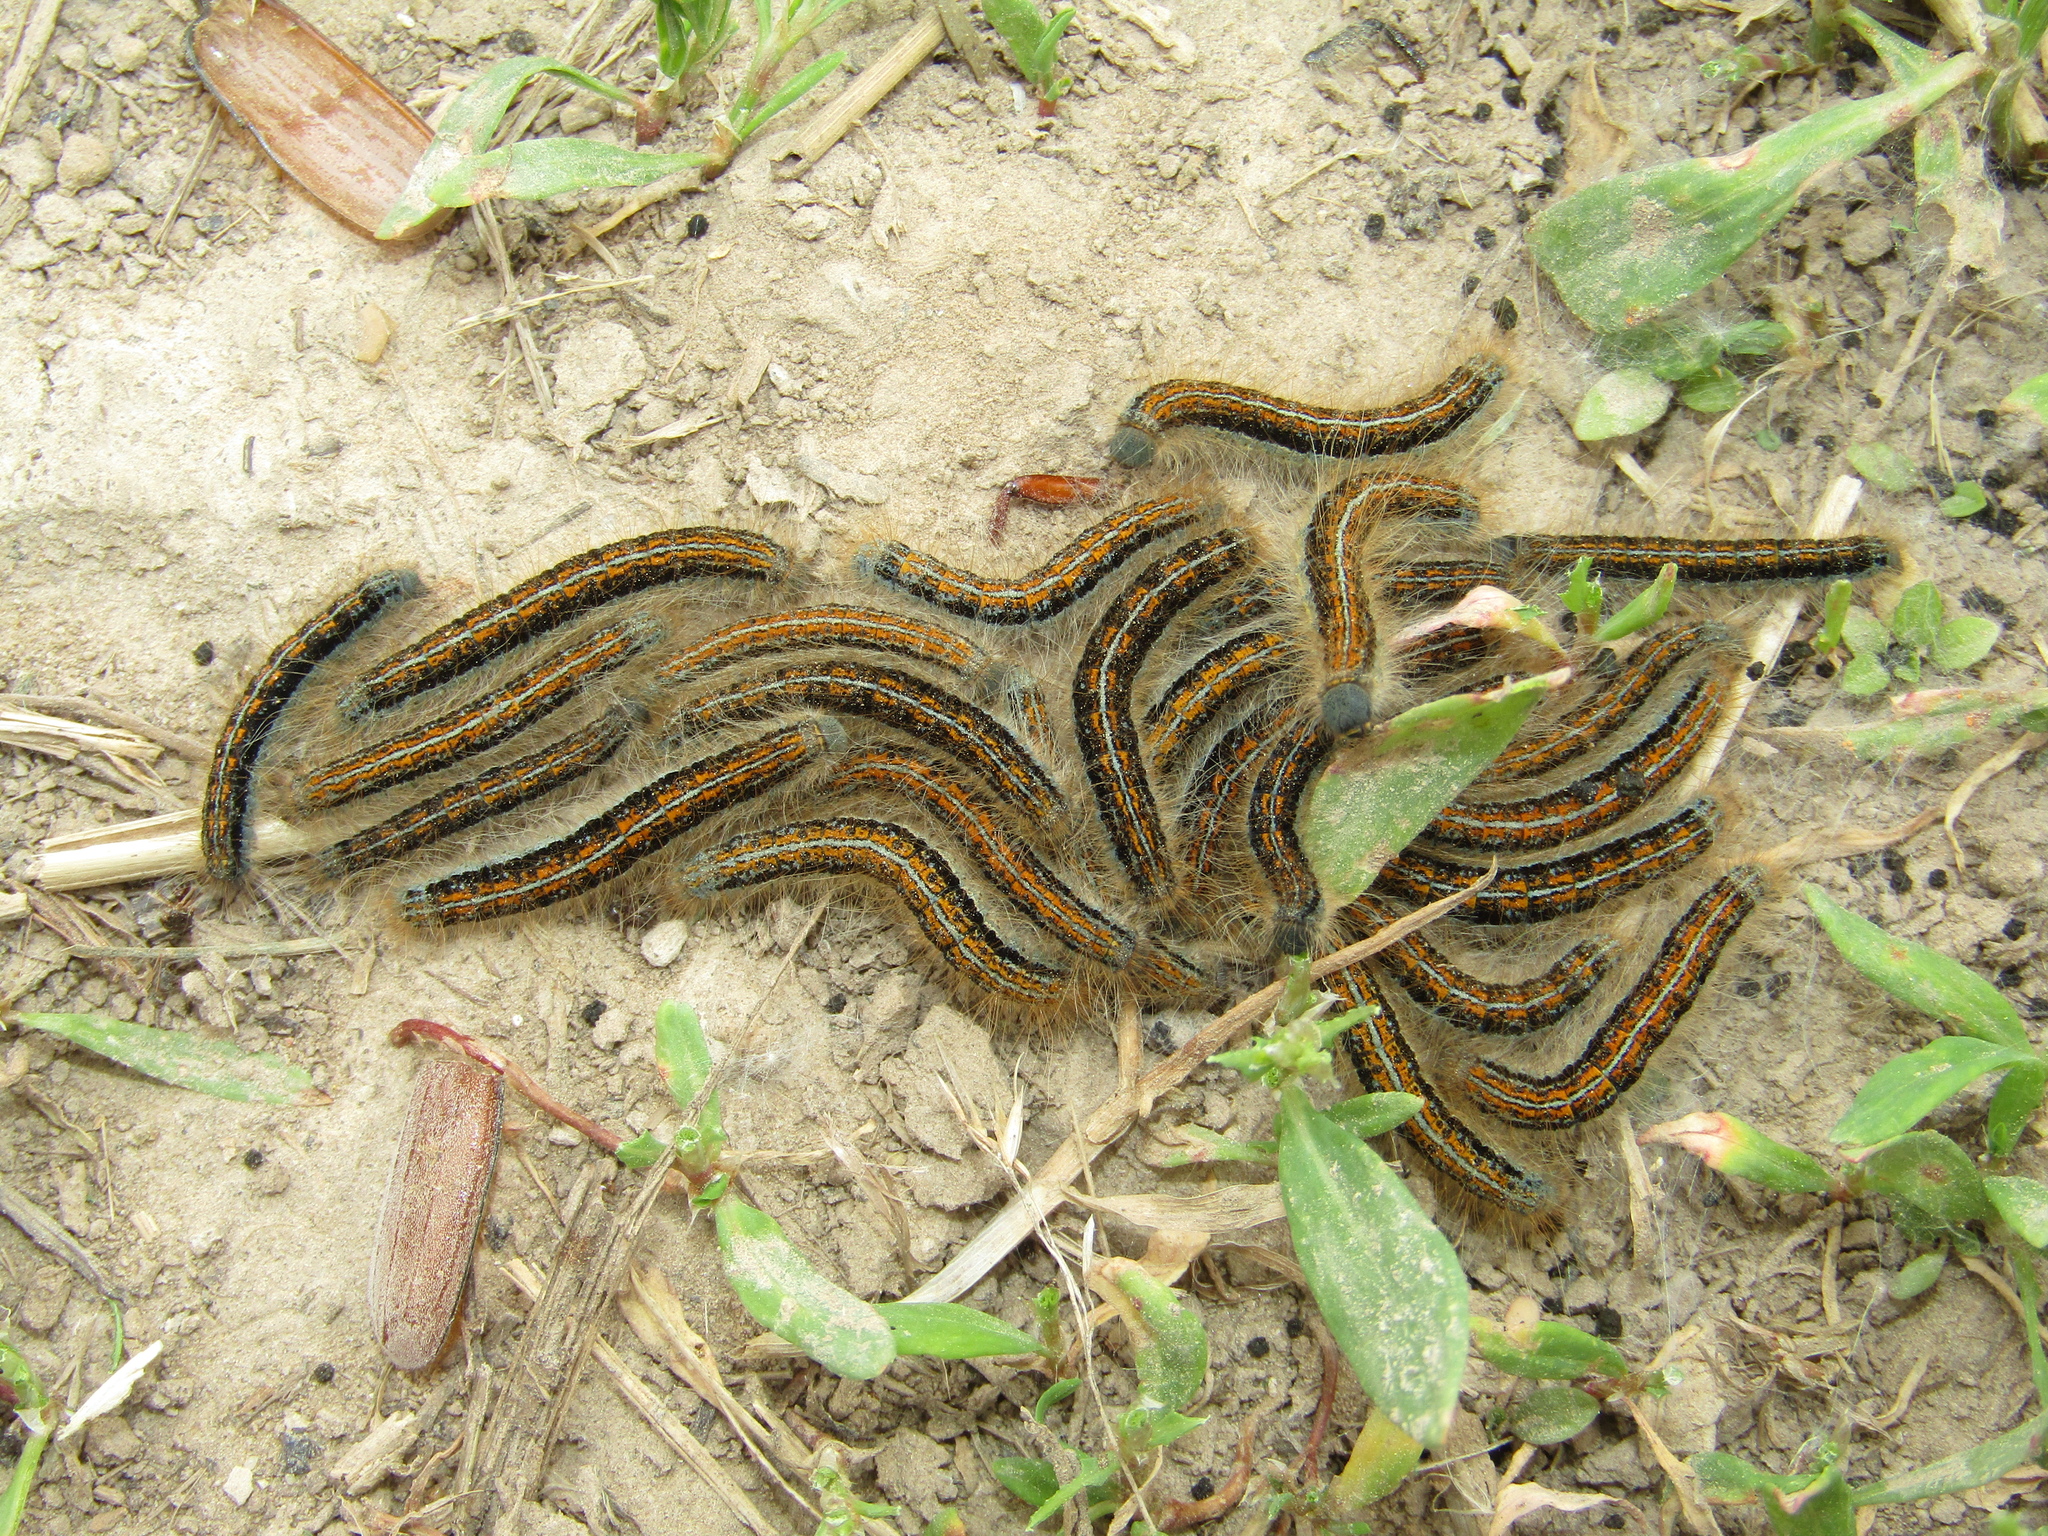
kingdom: Animalia
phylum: Arthropoda
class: Insecta
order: Lepidoptera
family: Lasiocampidae
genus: Malacosoma
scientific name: Malacosoma castrense
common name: Ground lackey
